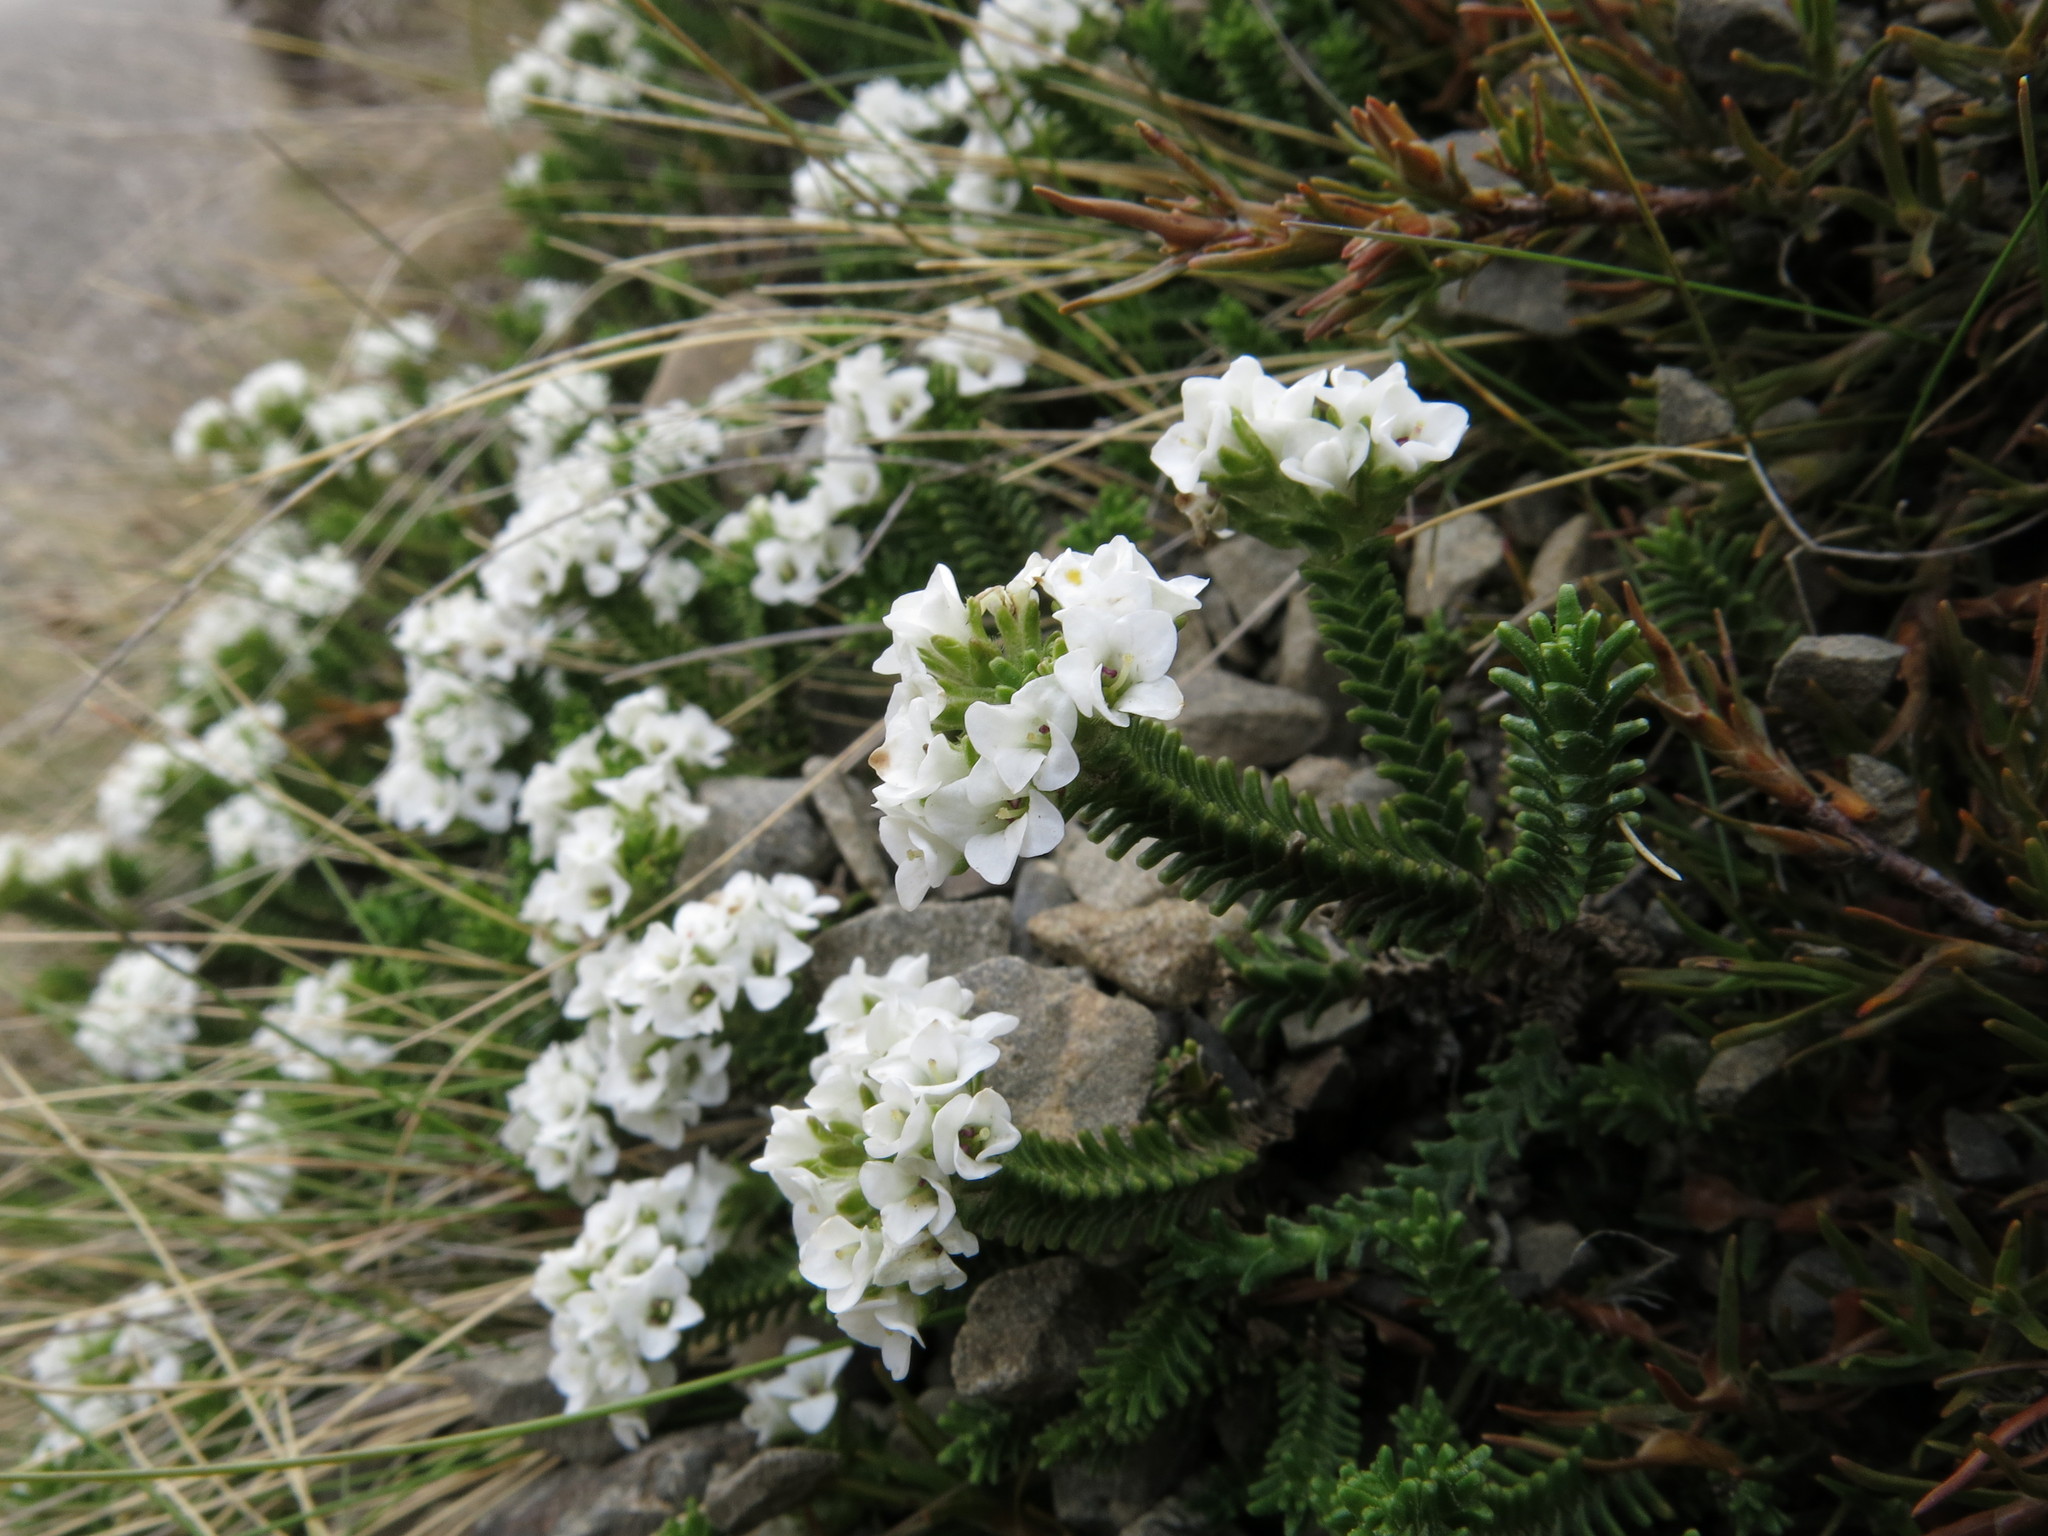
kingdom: Plantae
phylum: Tracheophyta
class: Magnoliopsida
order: Lamiales
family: Plantaginaceae
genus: Veronica
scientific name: Veronica hookeri
